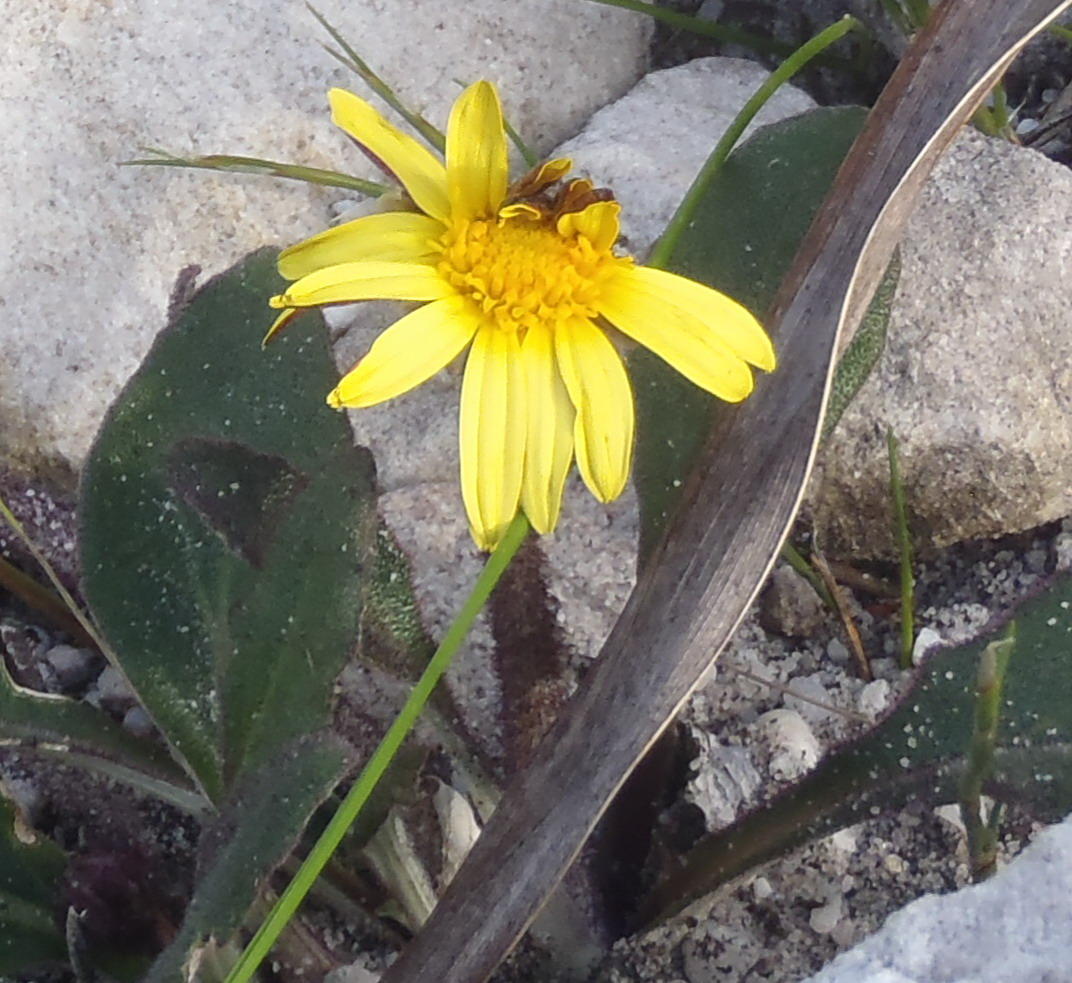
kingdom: Plantae
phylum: Tracheophyta
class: Magnoliopsida
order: Asterales
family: Asteraceae
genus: Haplocarpha
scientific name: Haplocarpha lanata
